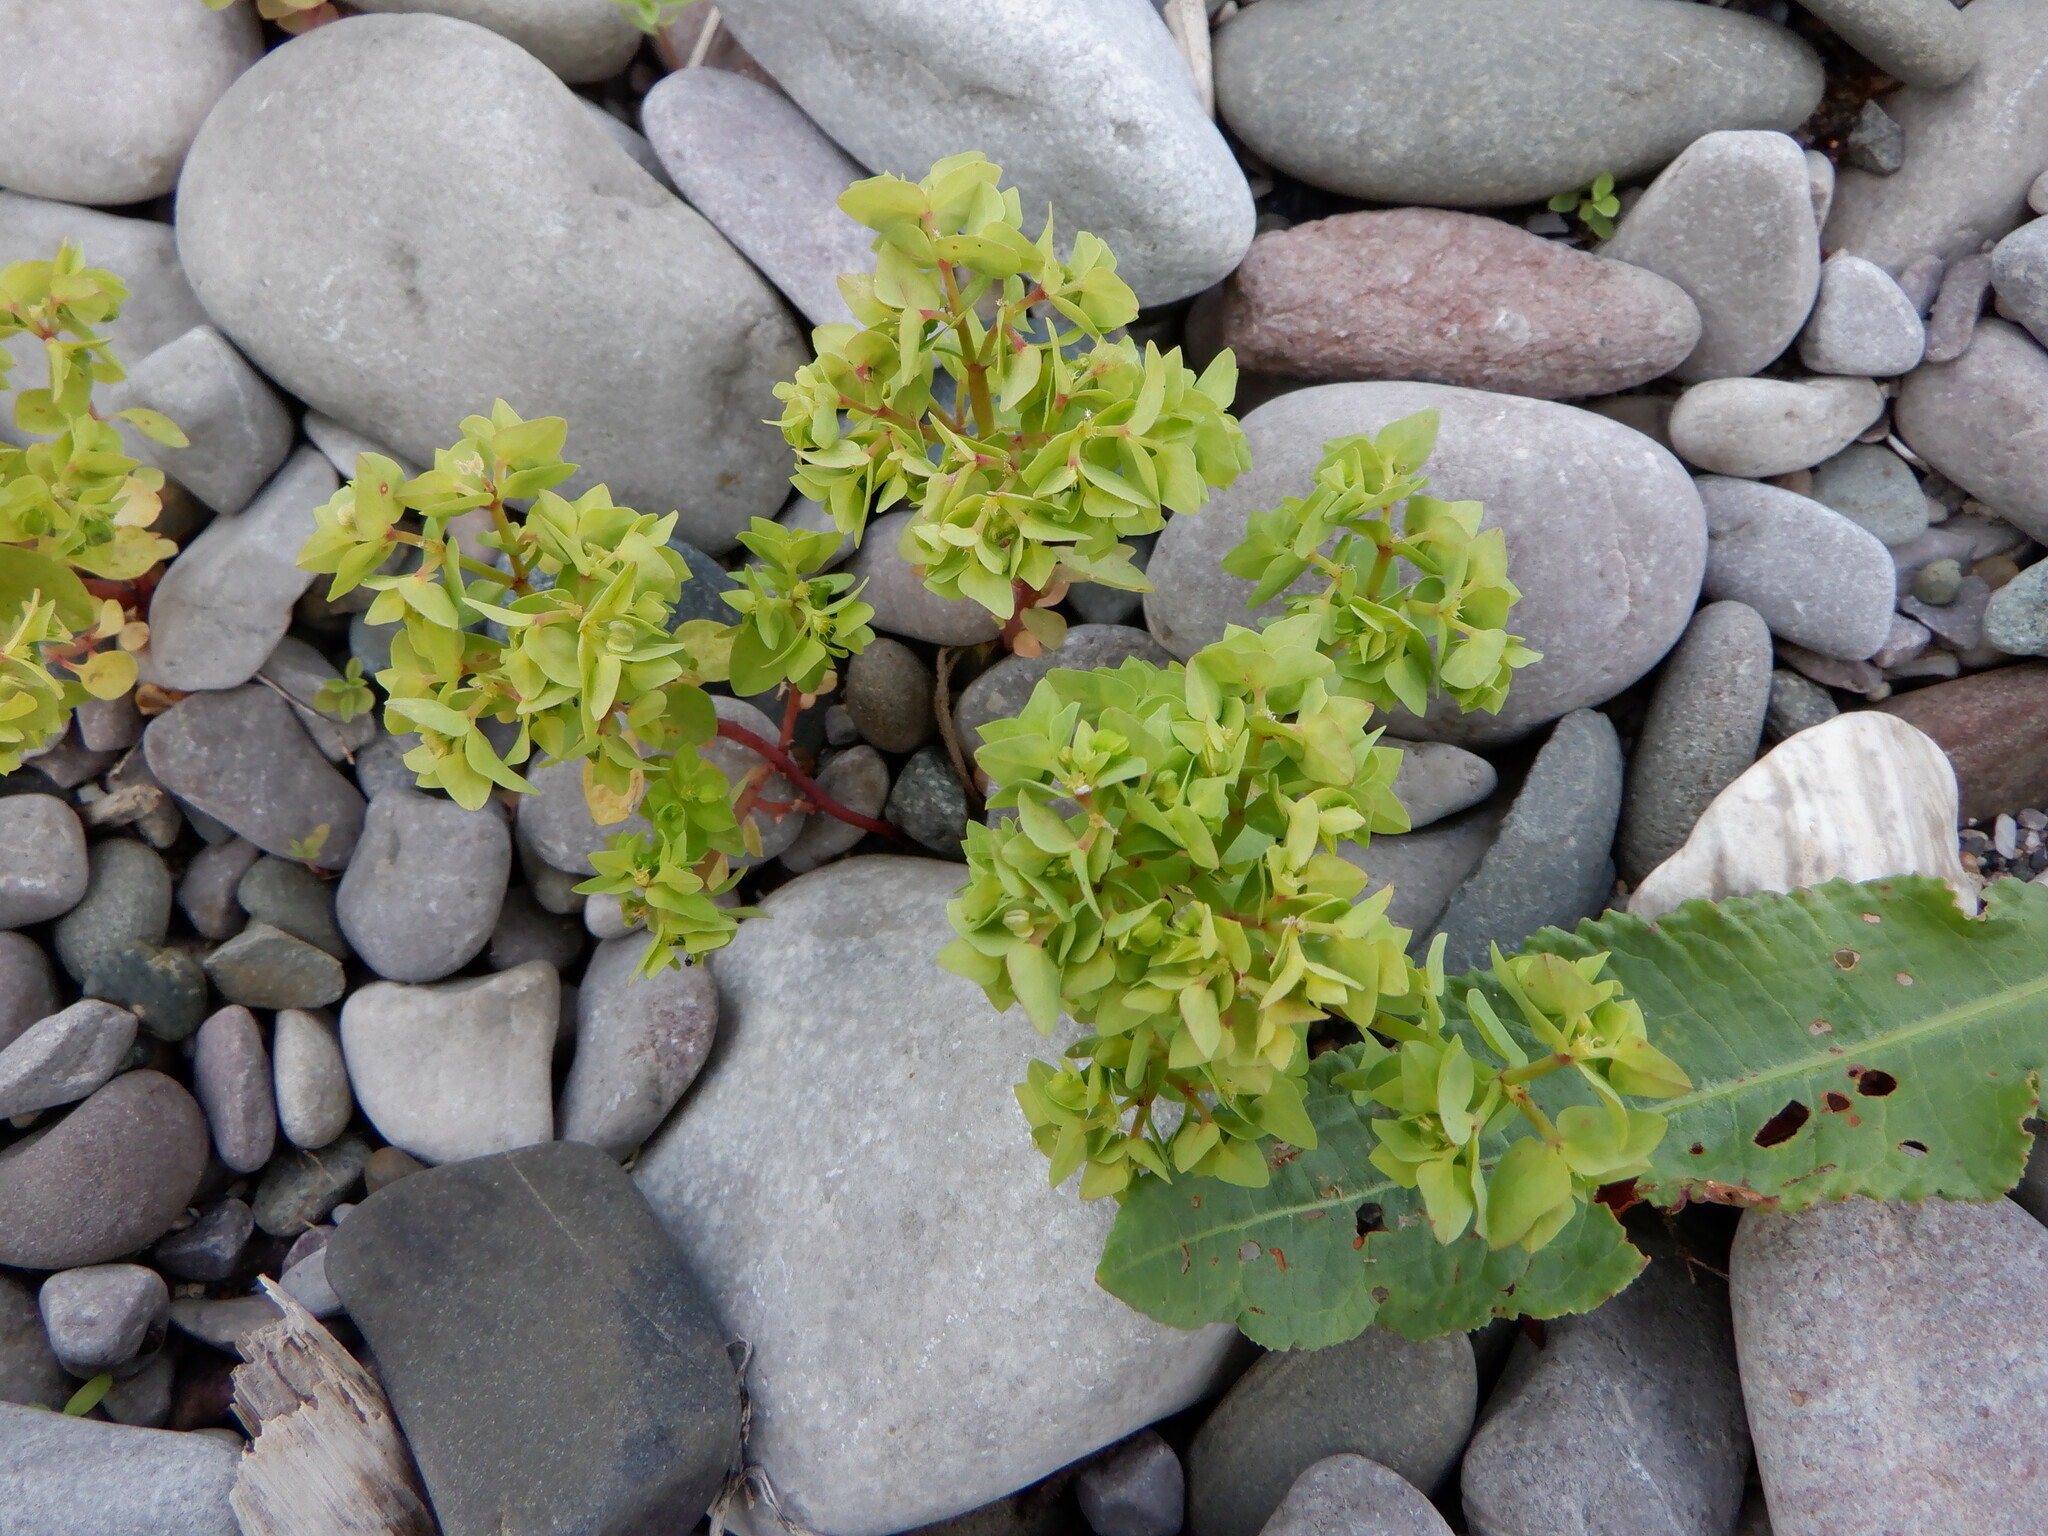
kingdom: Plantae
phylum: Tracheophyta
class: Magnoliopsida
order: Malpighiales
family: Euphorbiaceae
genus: Euphorbia
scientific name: Euphorbia peplus
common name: Petty spurge
